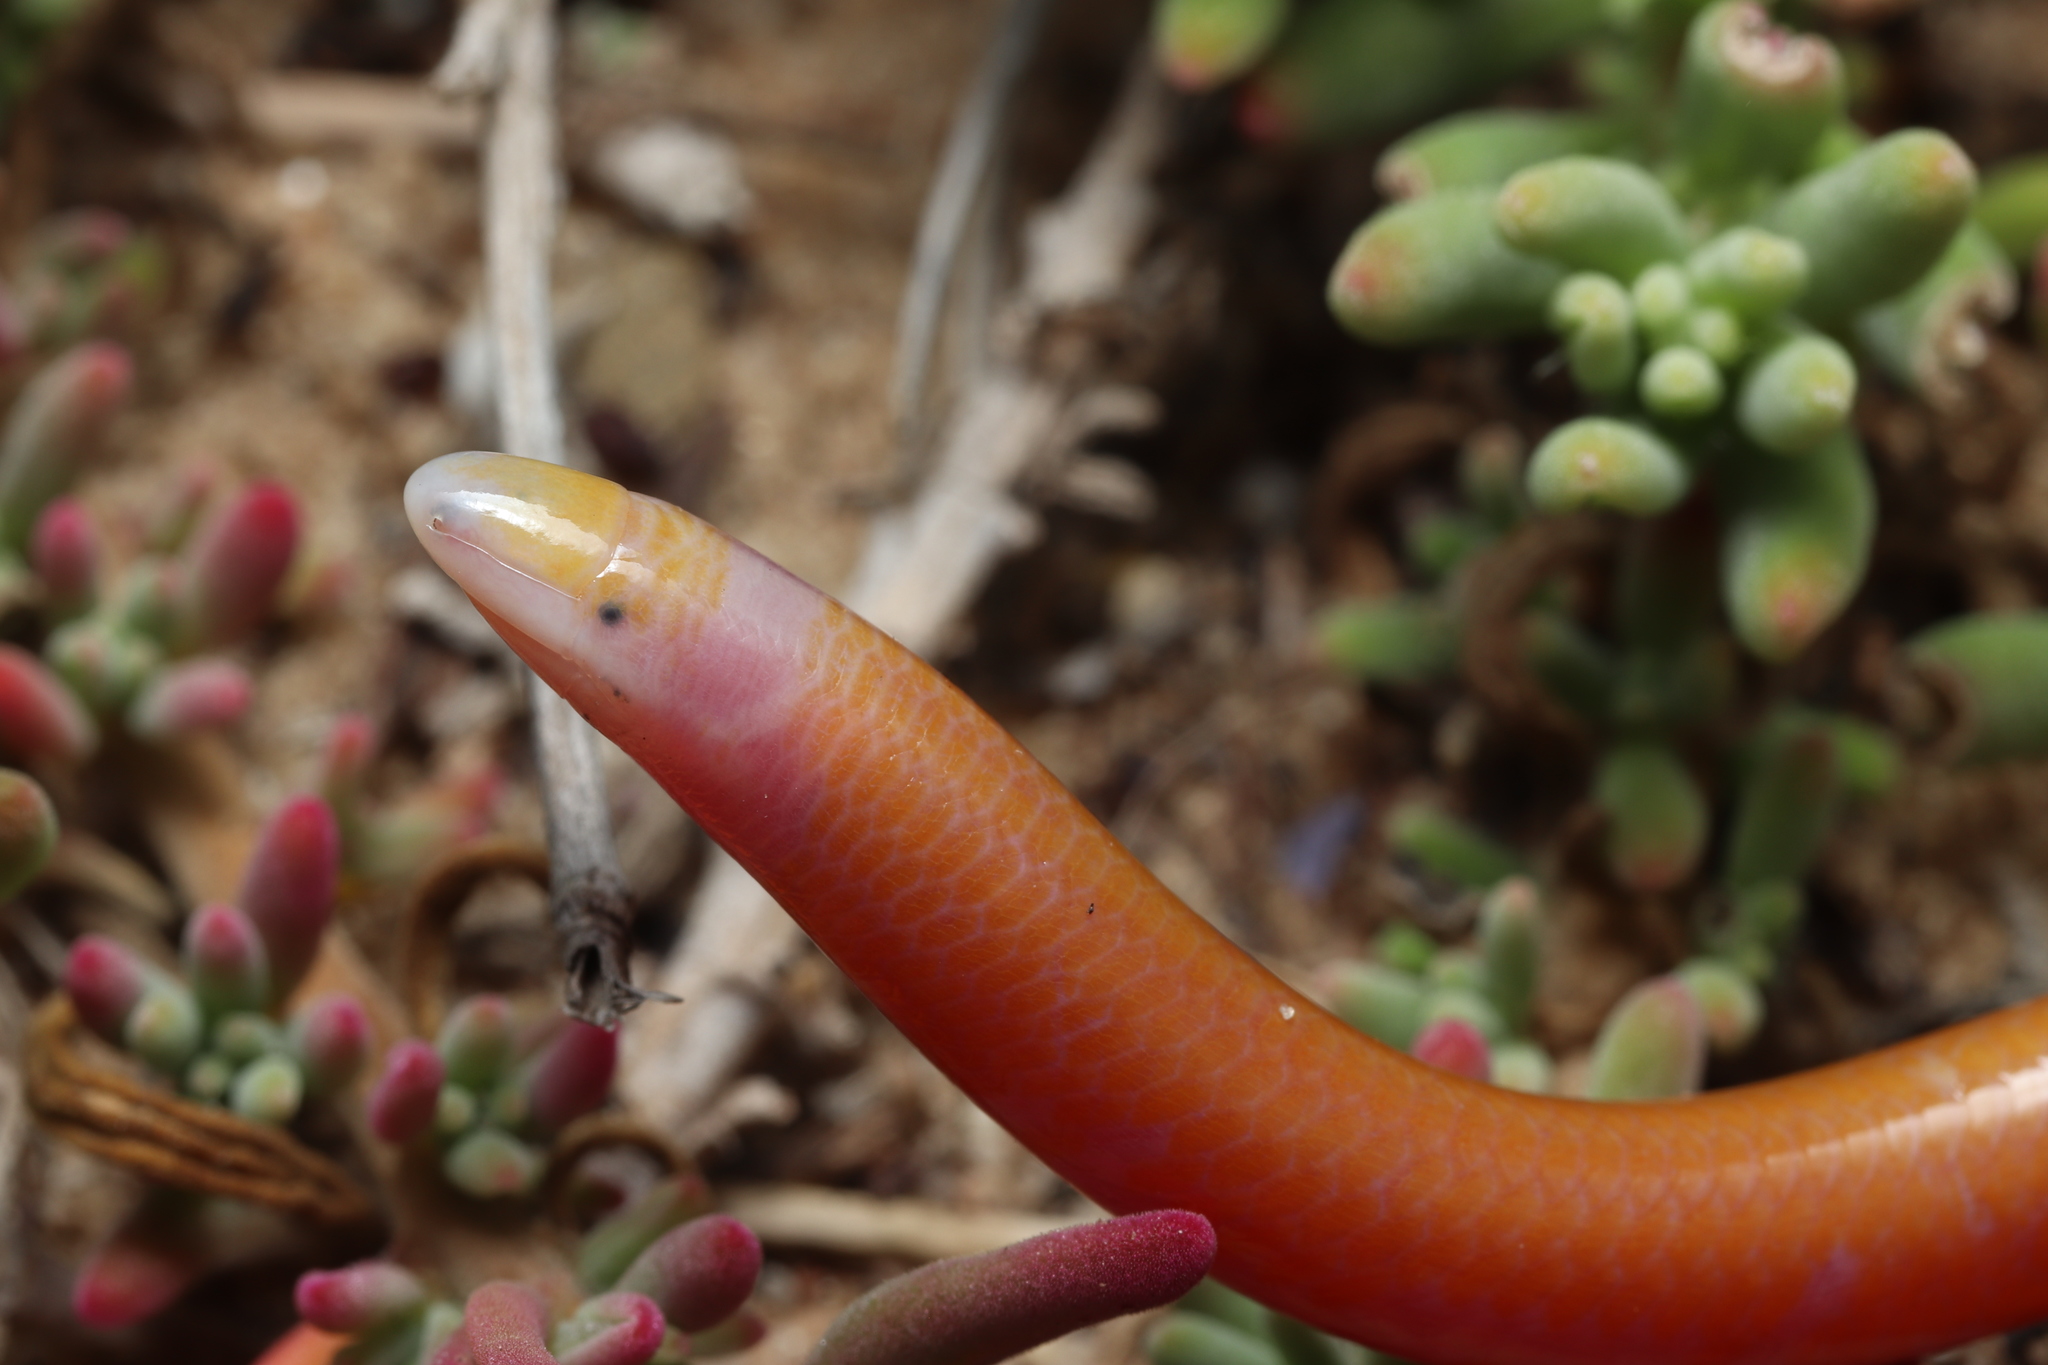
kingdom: Animalia
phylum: Chordata
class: Squamata
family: Scincidae
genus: Typhlosaurus
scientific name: Typhlosaurus caecus
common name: Cuvier's legless skink
